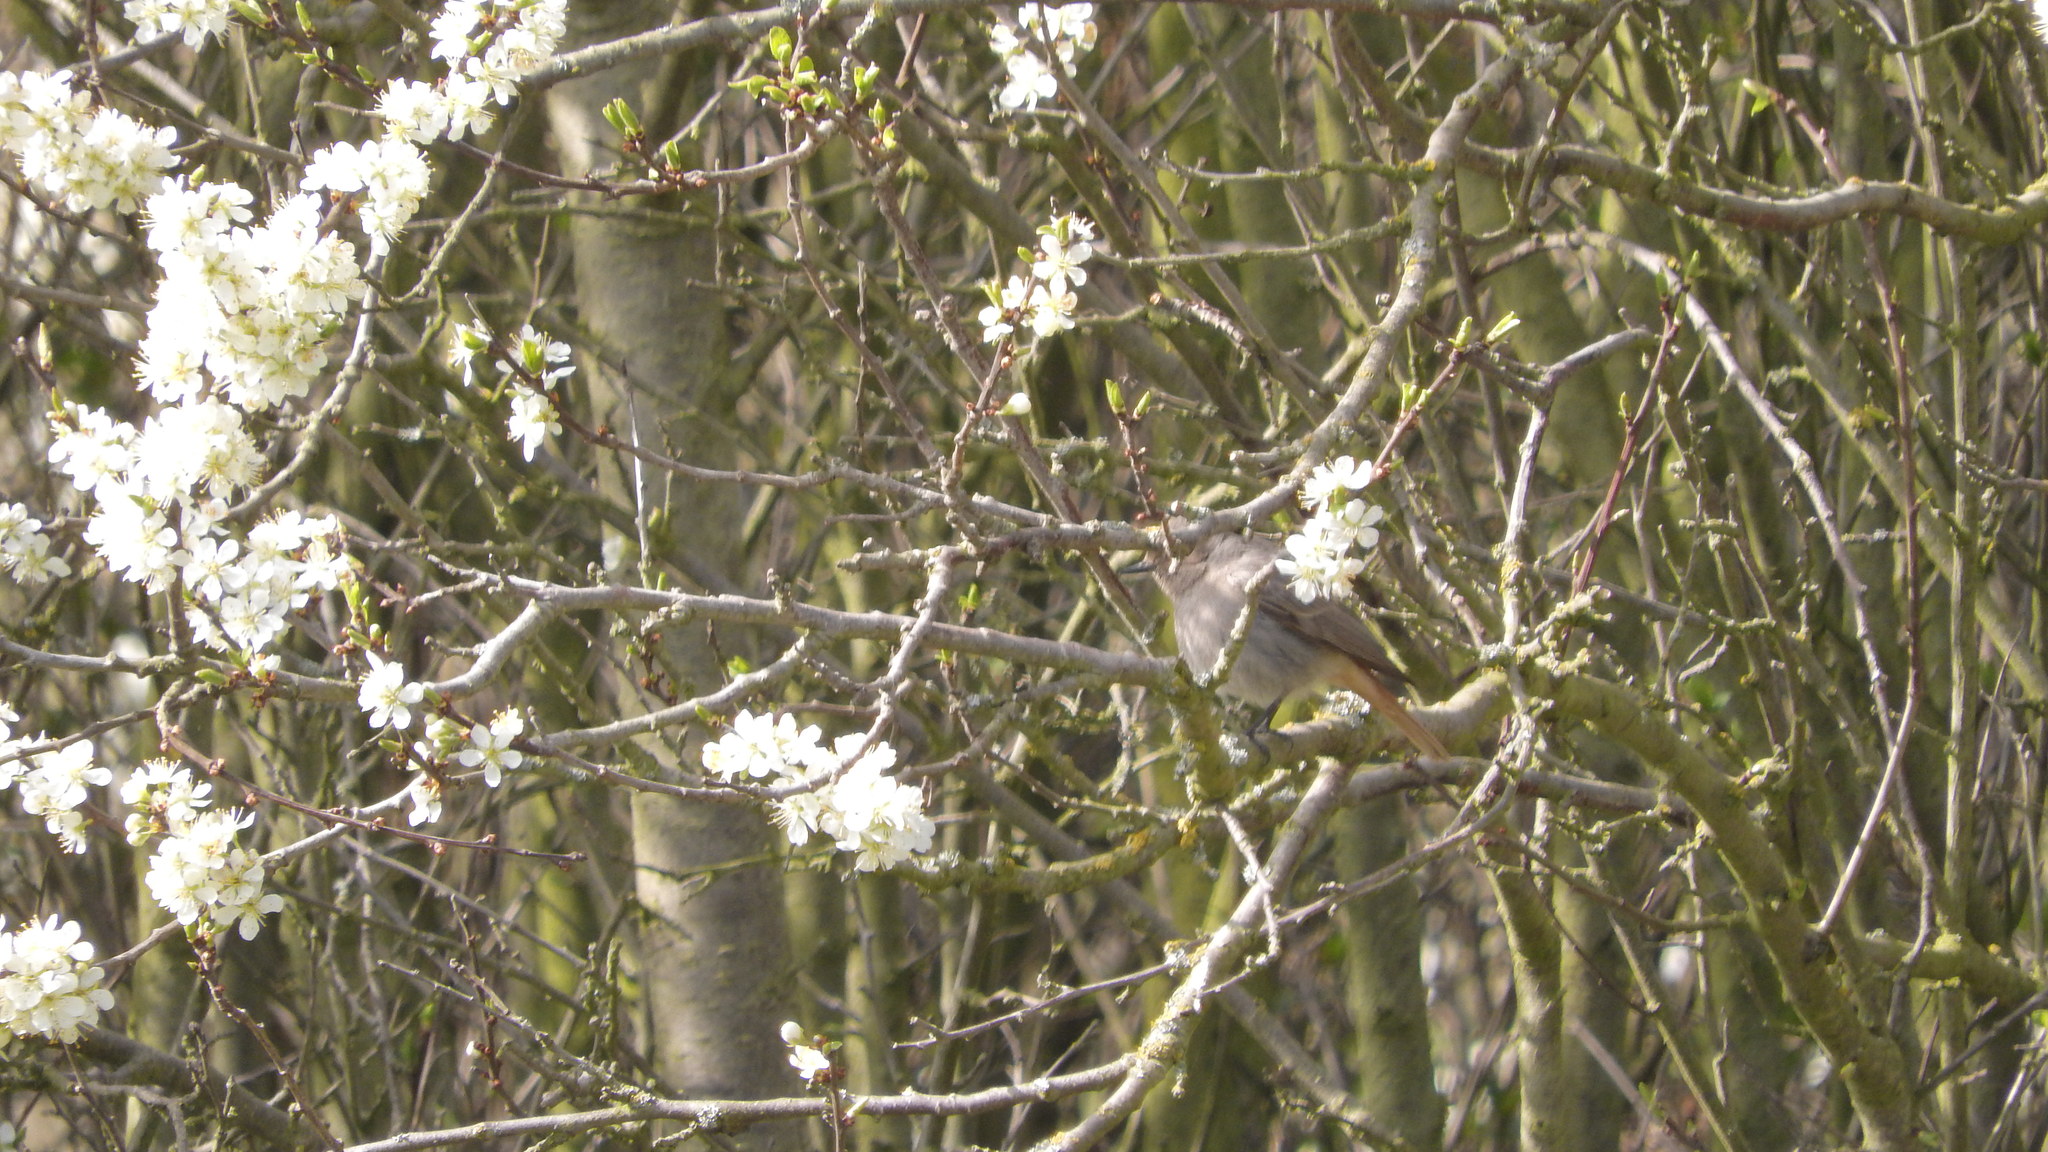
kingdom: Animalia
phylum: Chordata
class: Aves
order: Passeriformes
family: Muscicapidae
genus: Phoenicurus
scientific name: Phoenicurus ochruros
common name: Black redstart
